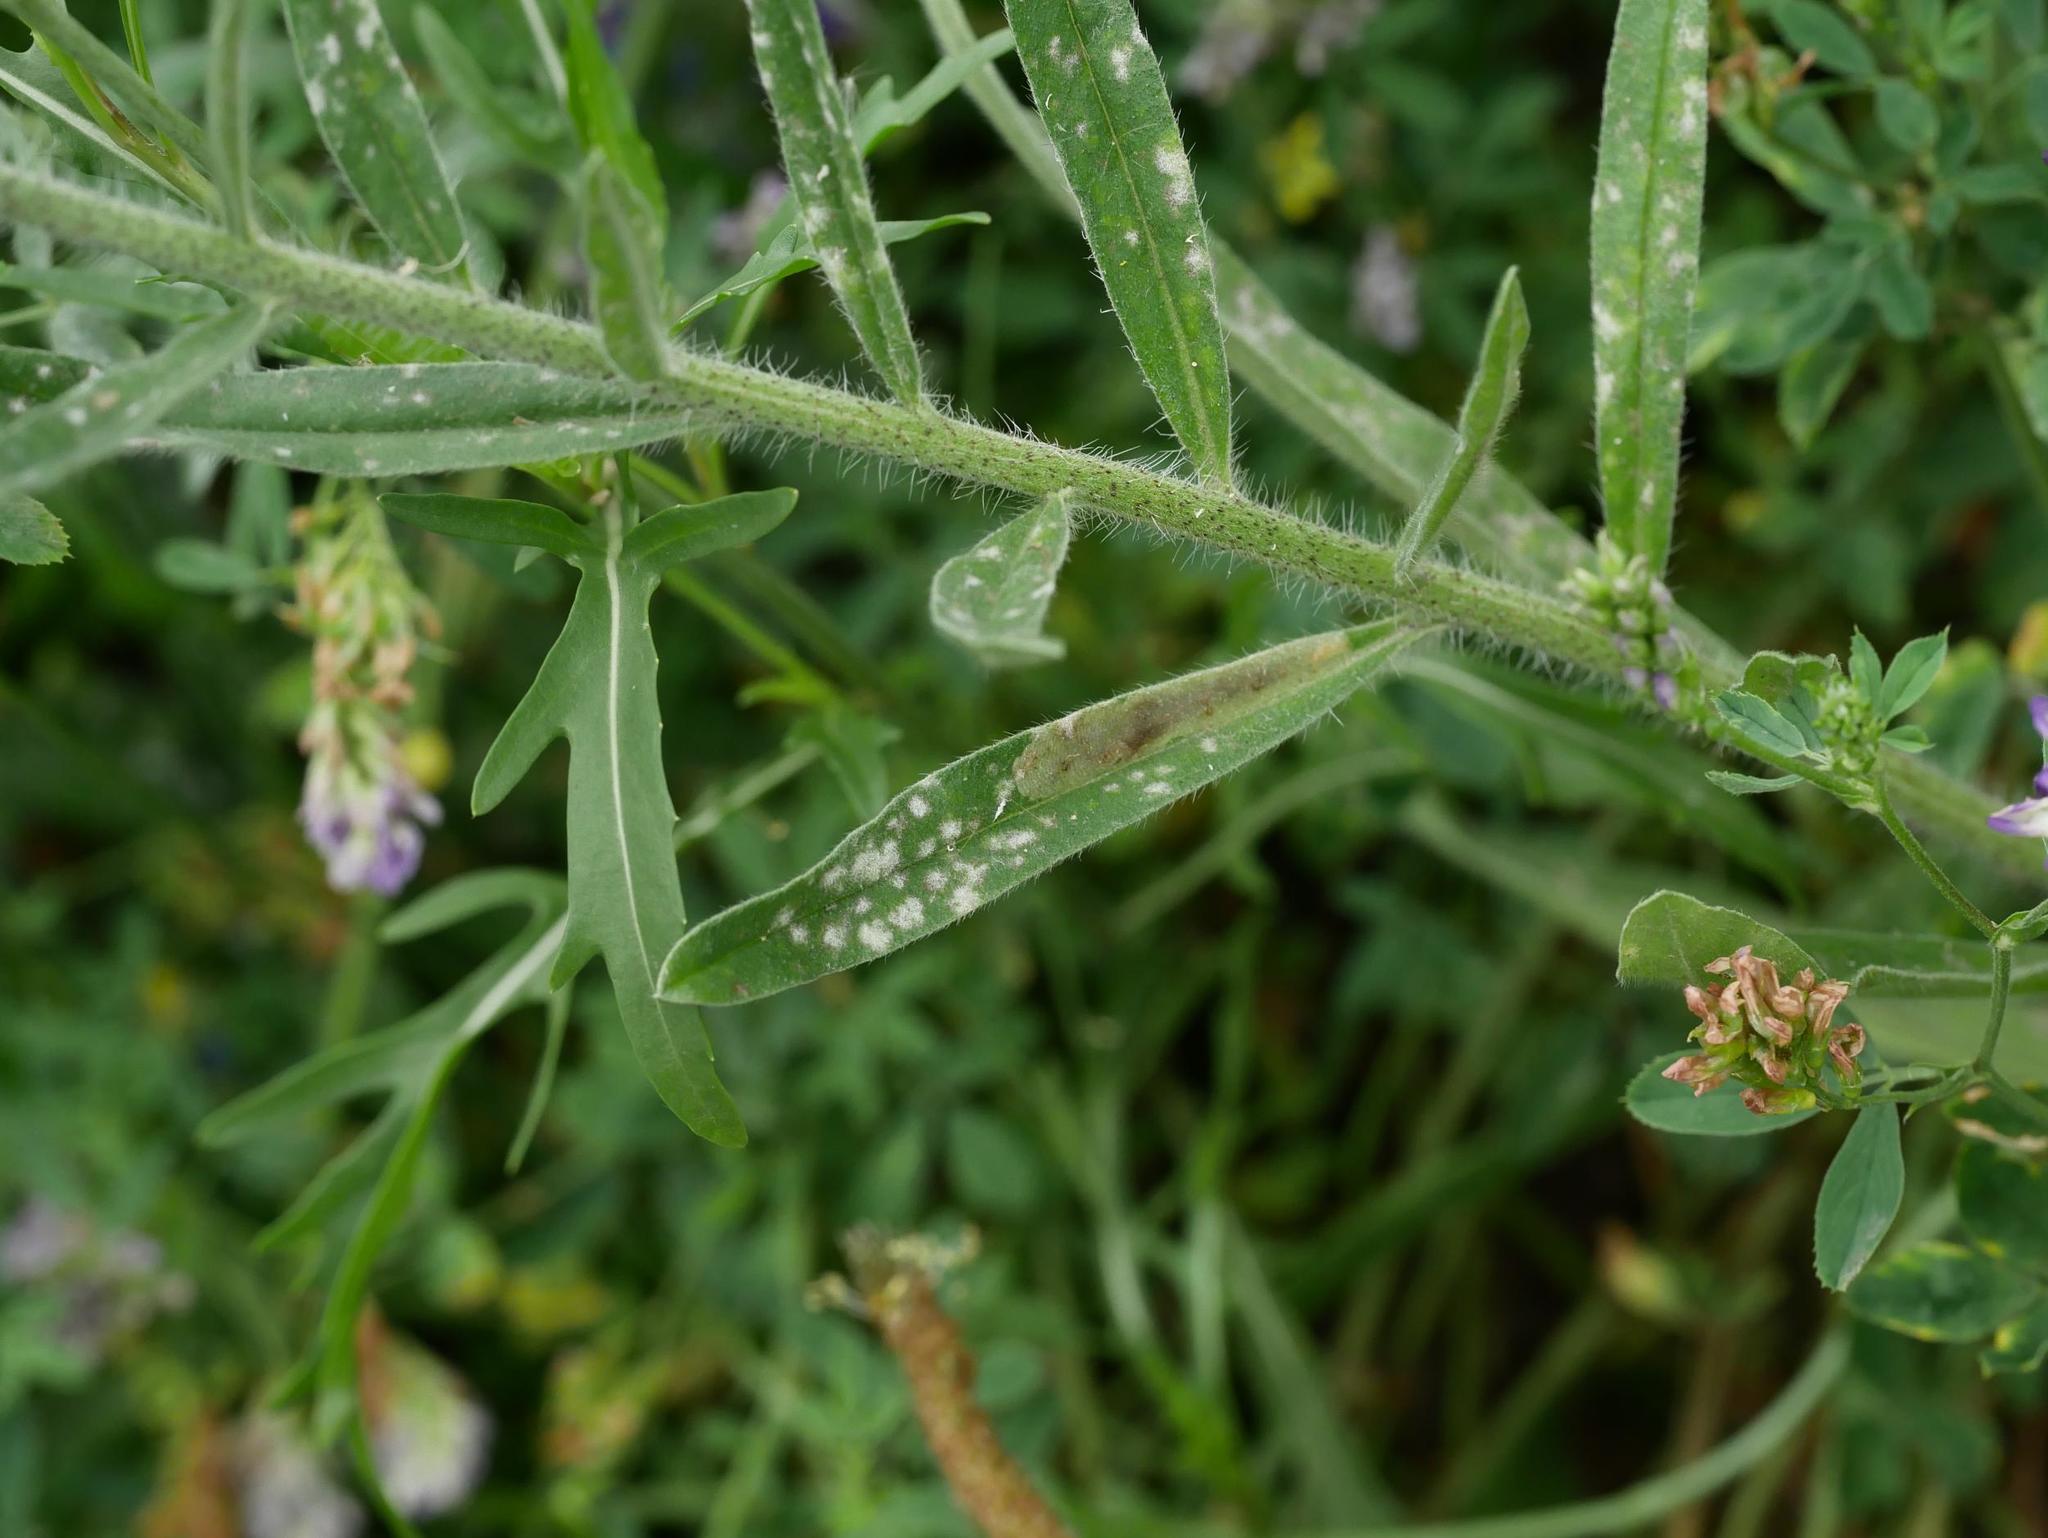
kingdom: Fungi
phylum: Ascomycota
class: Leotiomycetes
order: Helotiales
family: Erysiphaceae
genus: Golovinomyces
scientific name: Golovinomyces asperifolii
